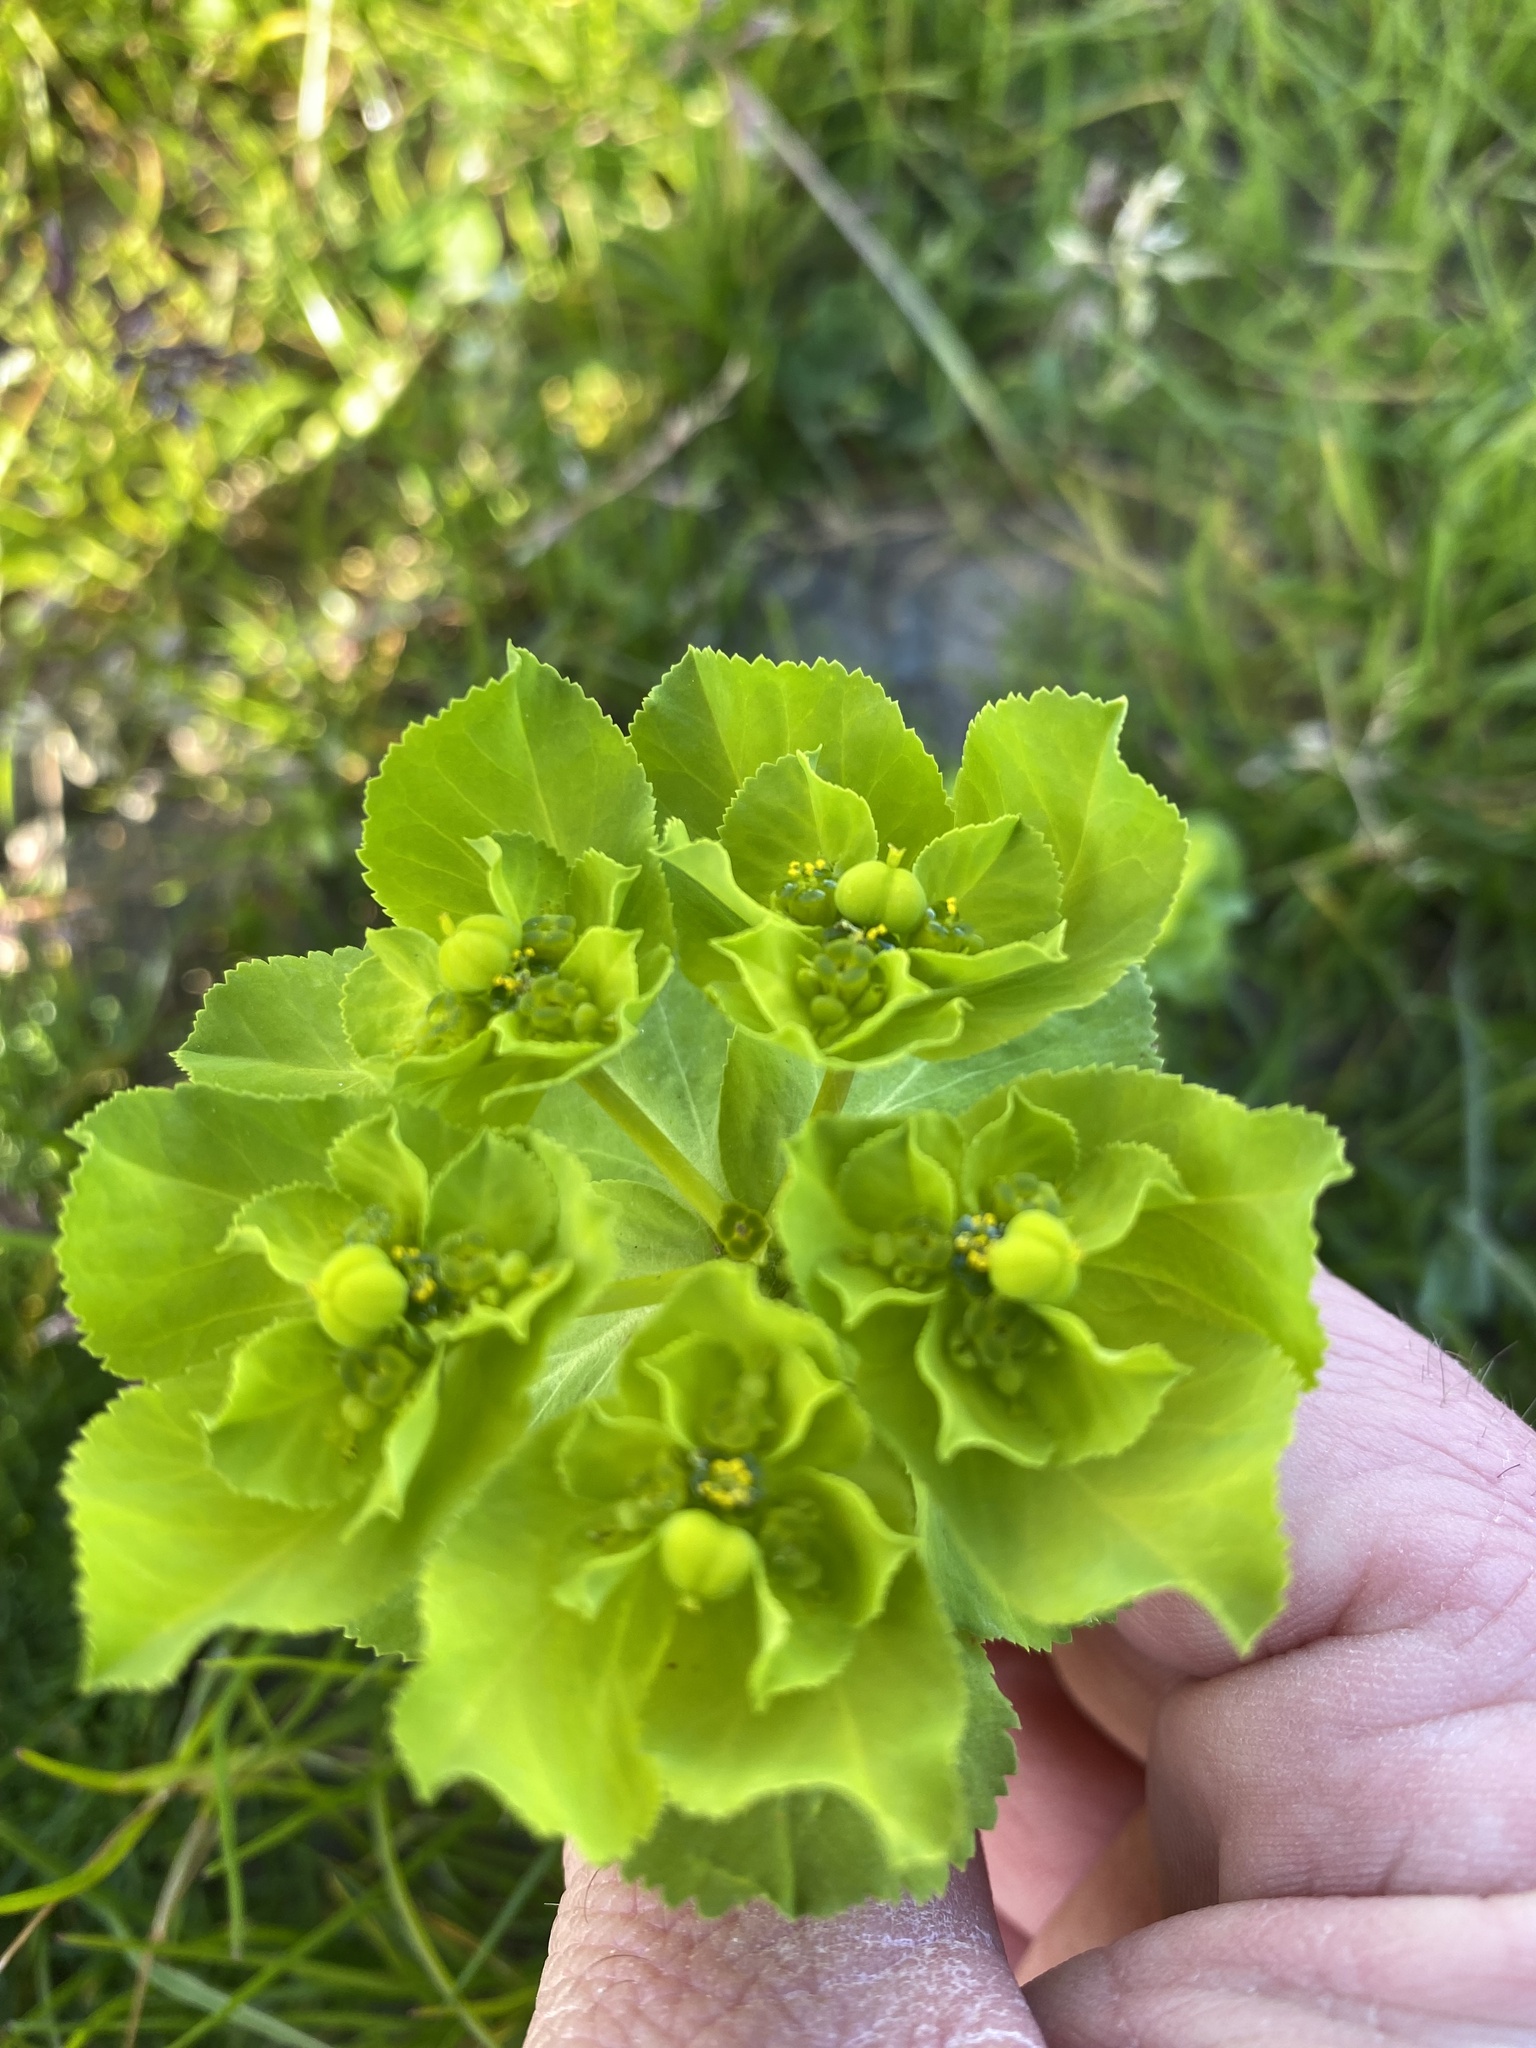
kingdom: Plantae
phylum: Tracheophyta
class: Magnoliopsida
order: Malpighiales
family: Euphorbiaceae
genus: Euphorbia
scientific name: Euphorbia helioscopia
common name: Sun spurge
